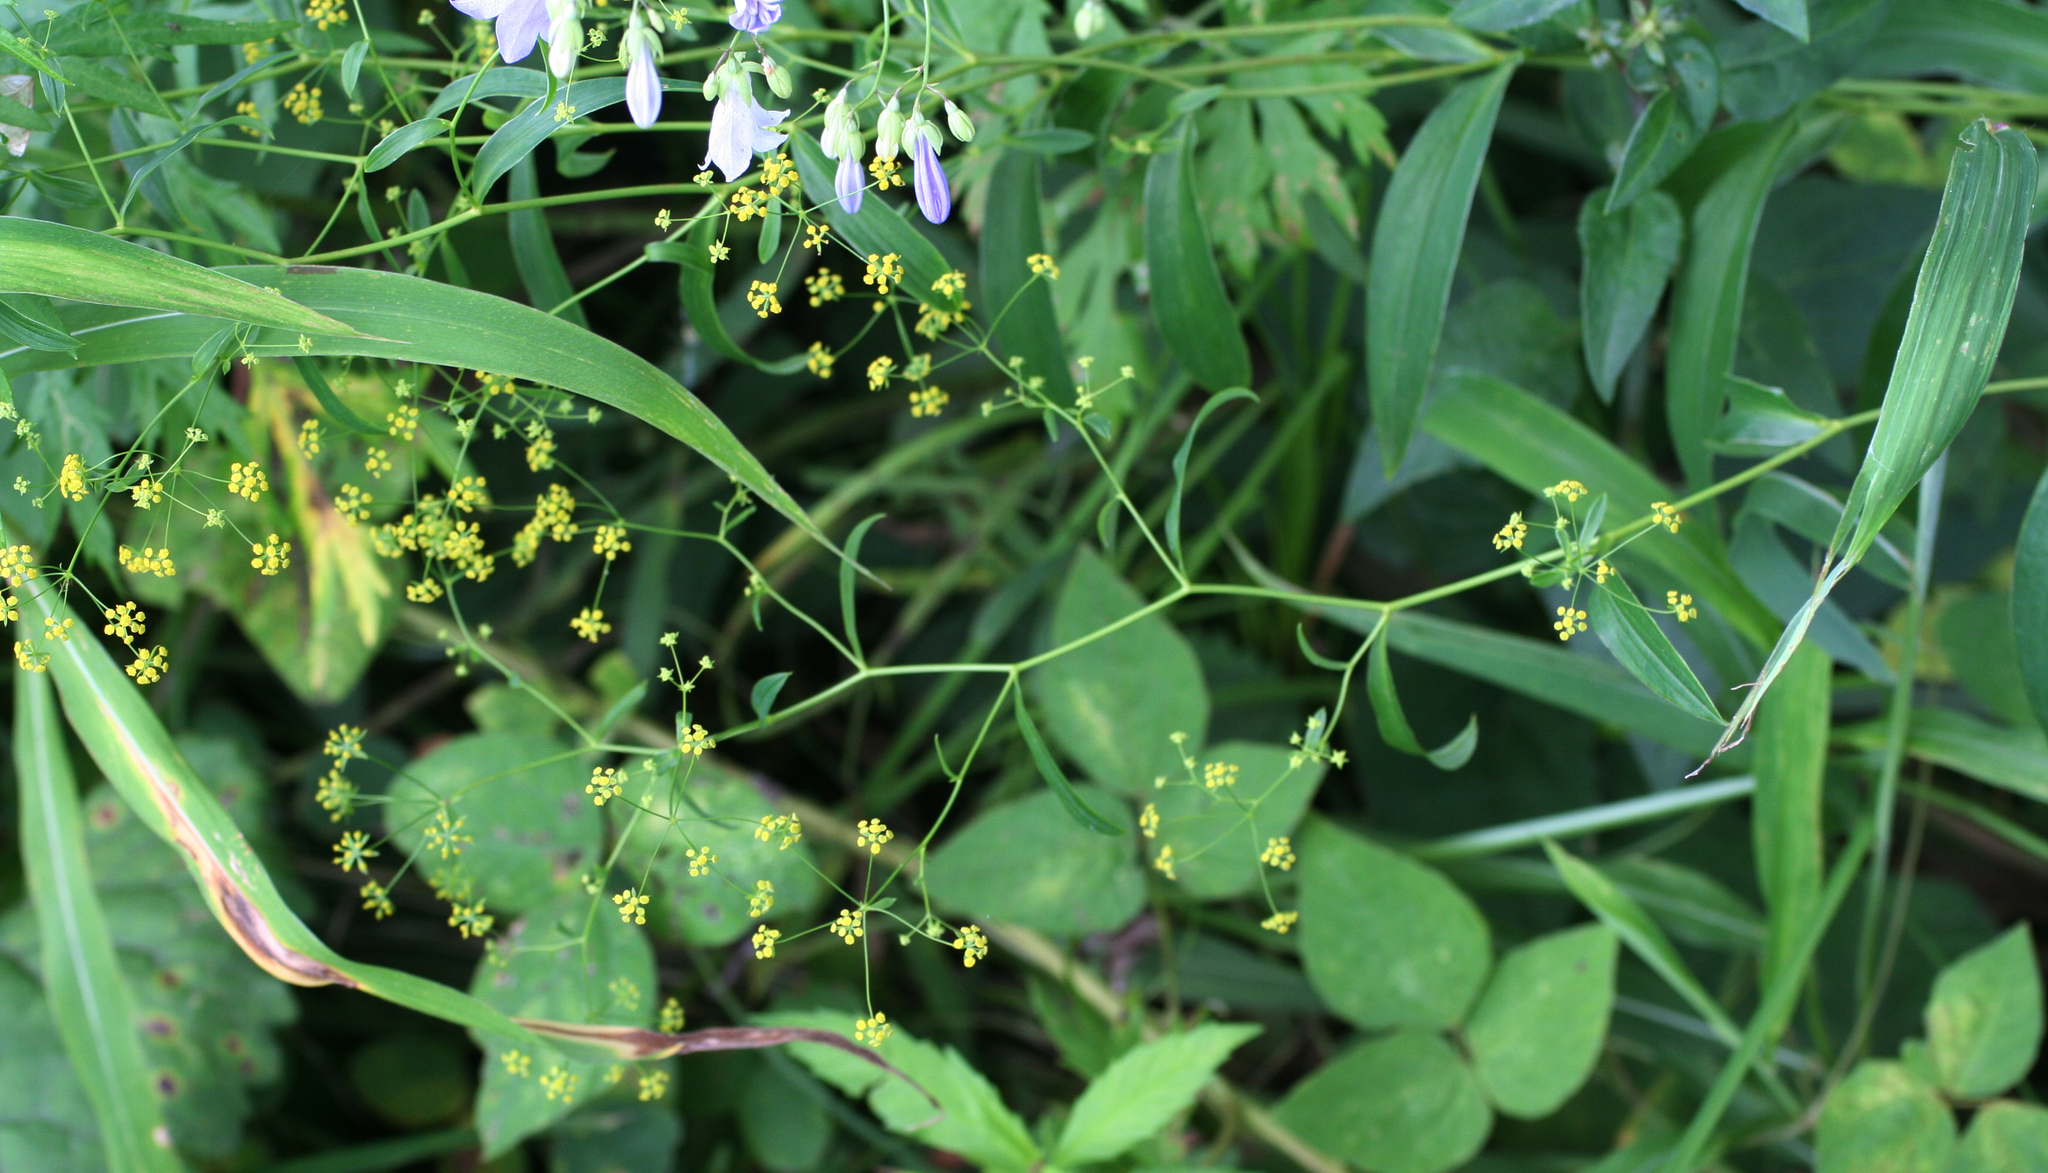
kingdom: Plantae
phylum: Tracheophyta
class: Magnoliopsida
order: Apiales
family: Apiaceae
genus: Bupleurum
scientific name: Bupleurum komarovianum
